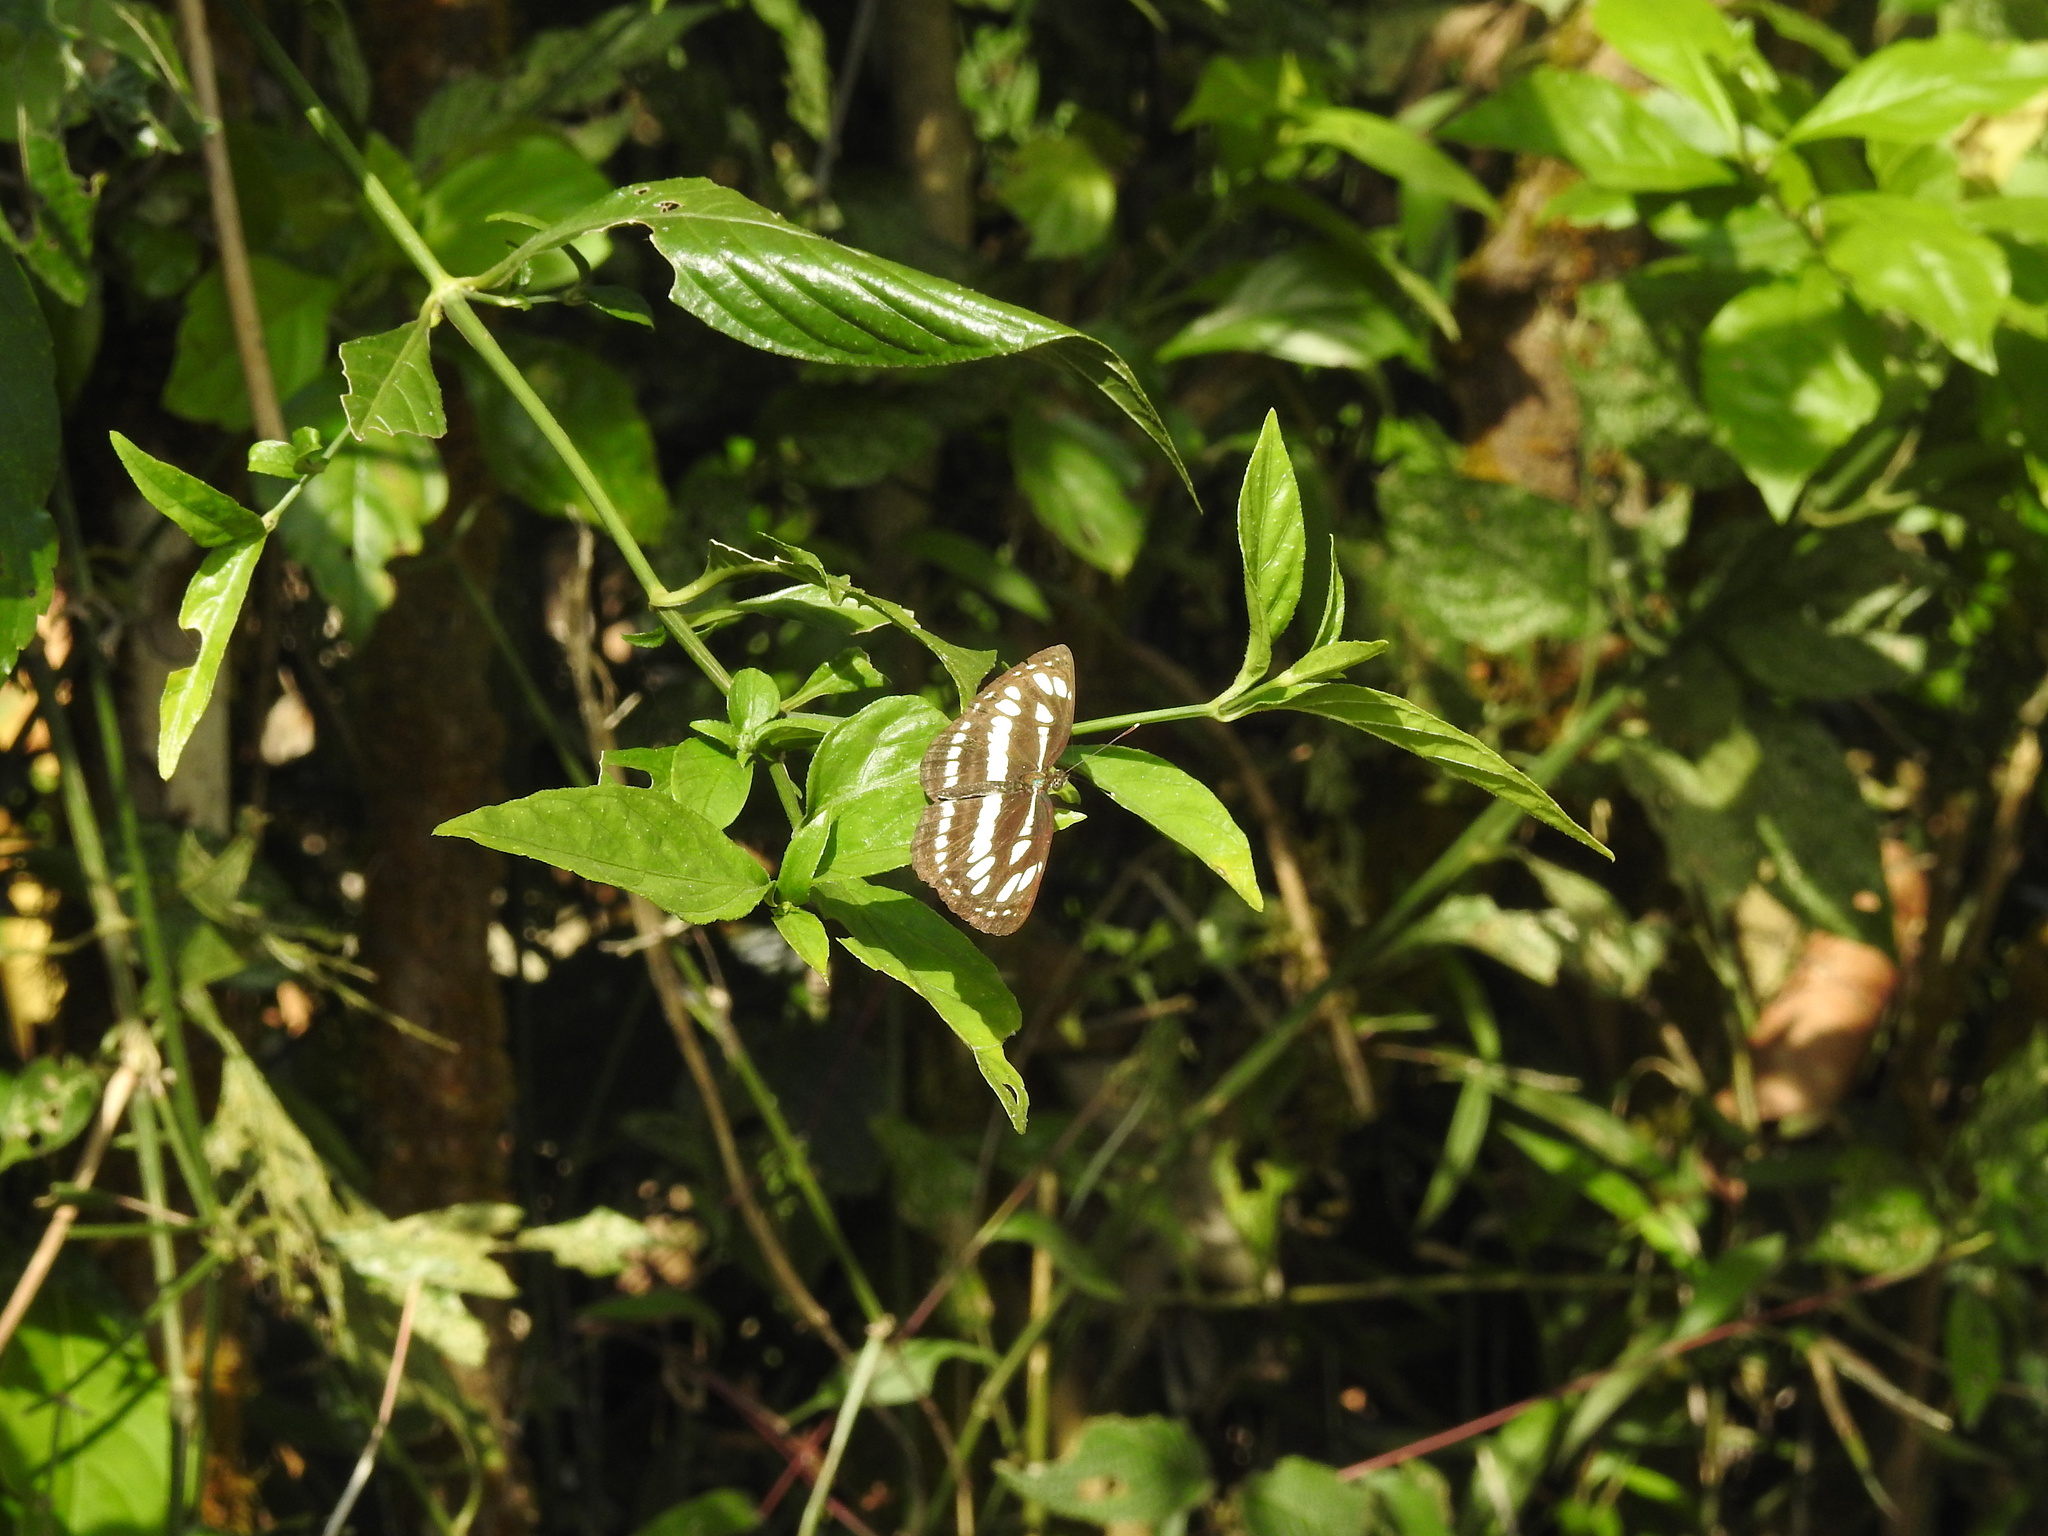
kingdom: Animalia
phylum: Arthropoda
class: Insecta
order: Lepidoptera
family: Nymphalidae
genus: Neptis
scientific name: Neptis hylas
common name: Common sailer
